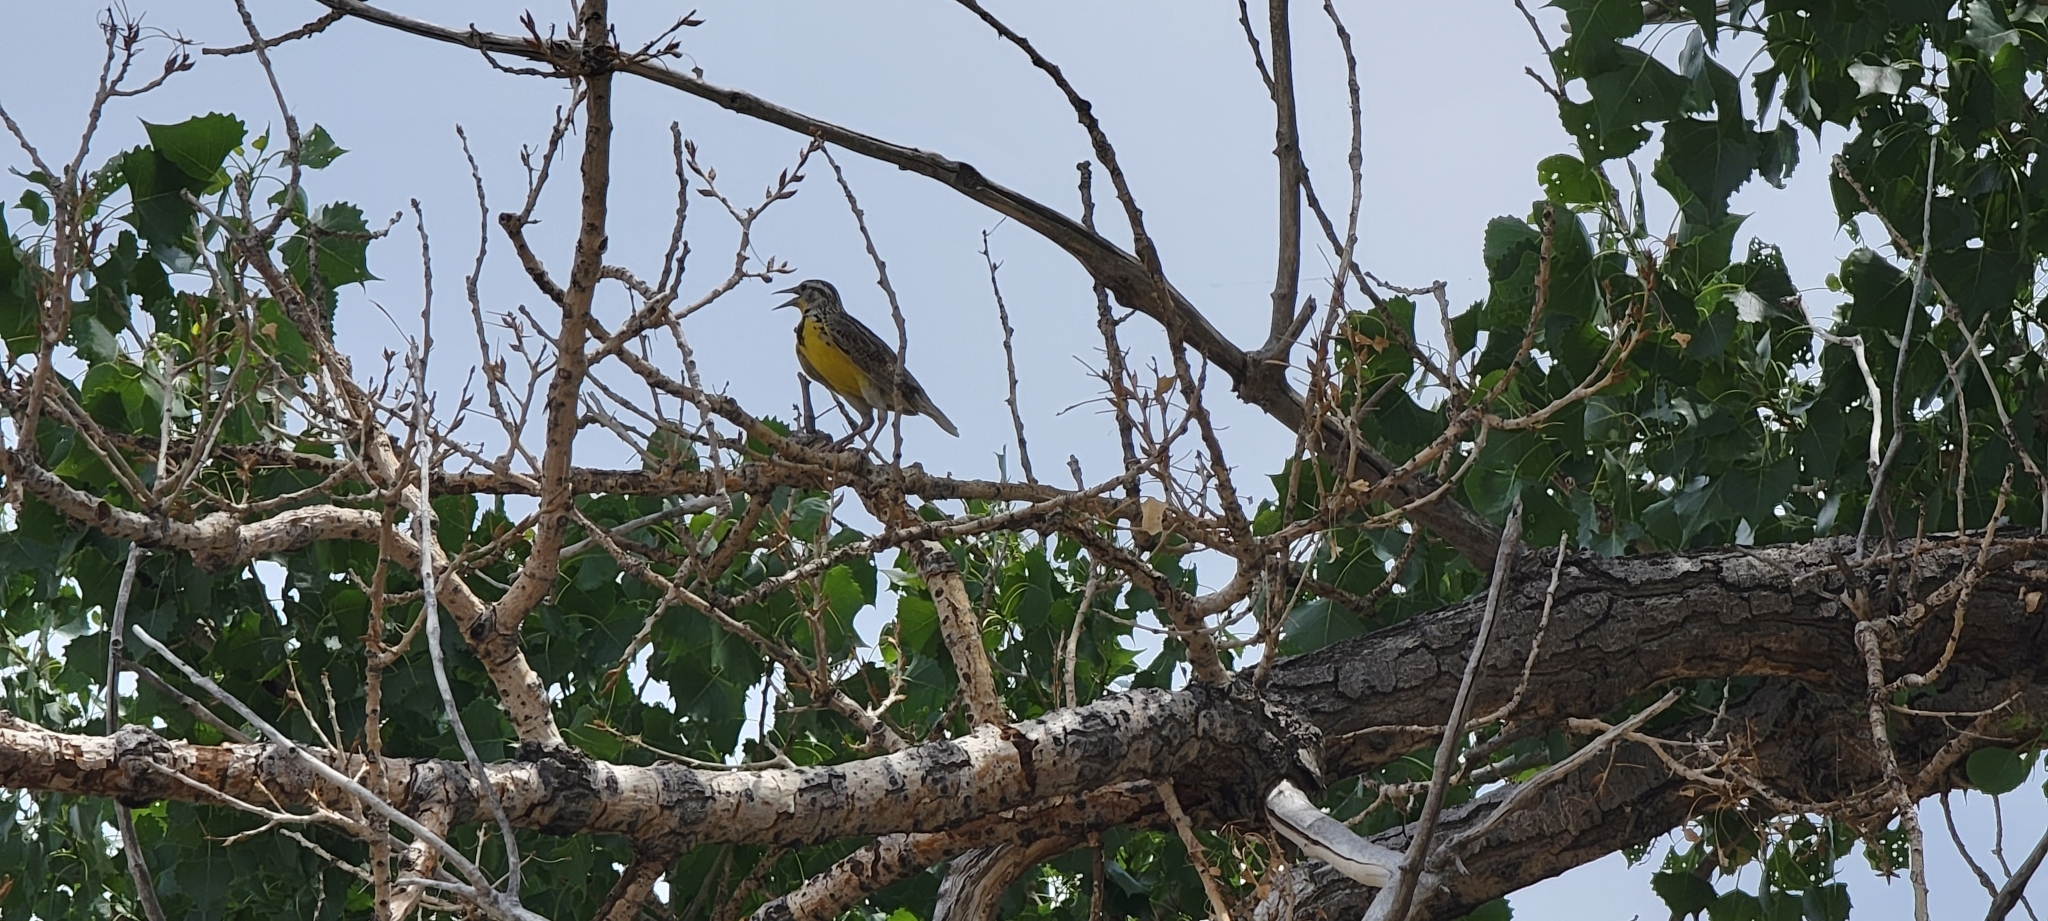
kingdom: Animalia
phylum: Chordata
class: Aves
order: Passeriformes
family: Icteridae
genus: Sturnella
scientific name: Sturnella neglecta
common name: Western meadowlark
